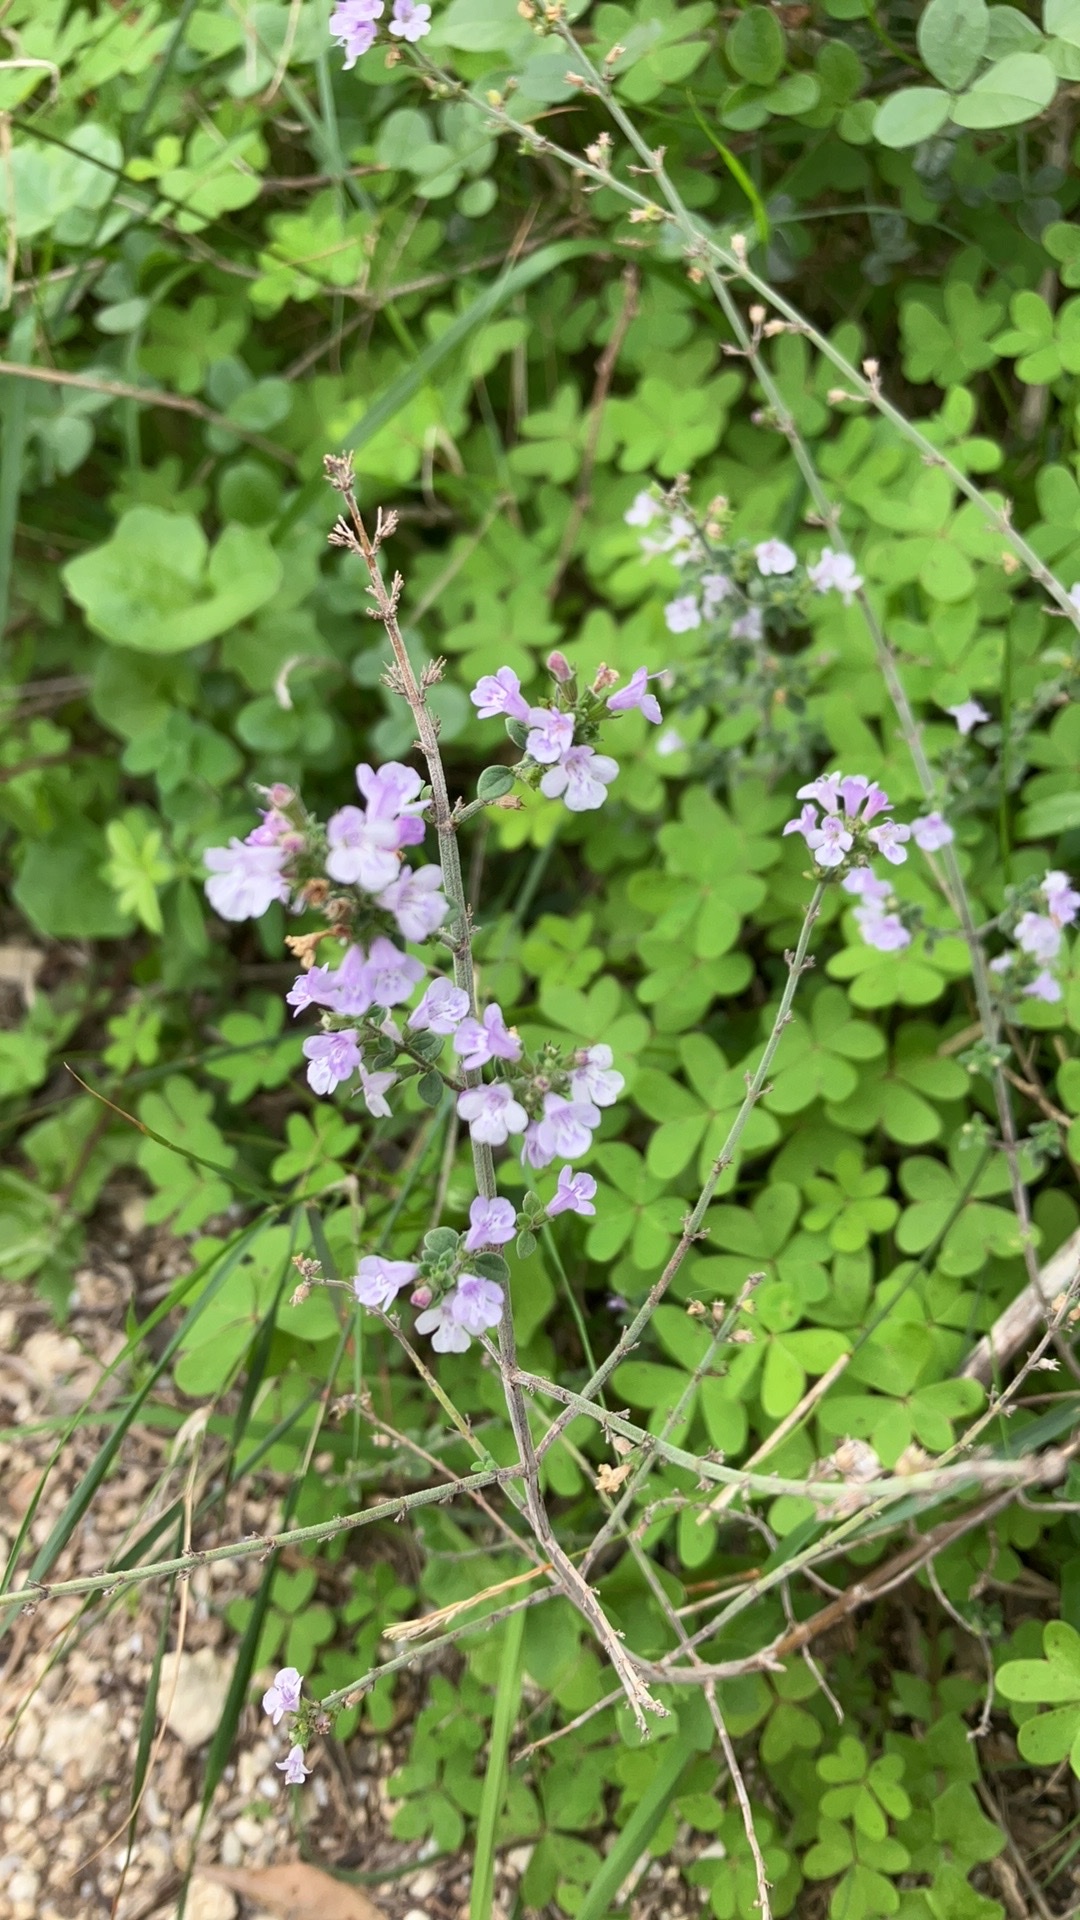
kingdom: Plantae
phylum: Tracheophyta
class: Magnoliopsida
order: Lamiales
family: Lamiaceae
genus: Clinopodium
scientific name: Clinopodium nepeta
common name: Lesser calamint
